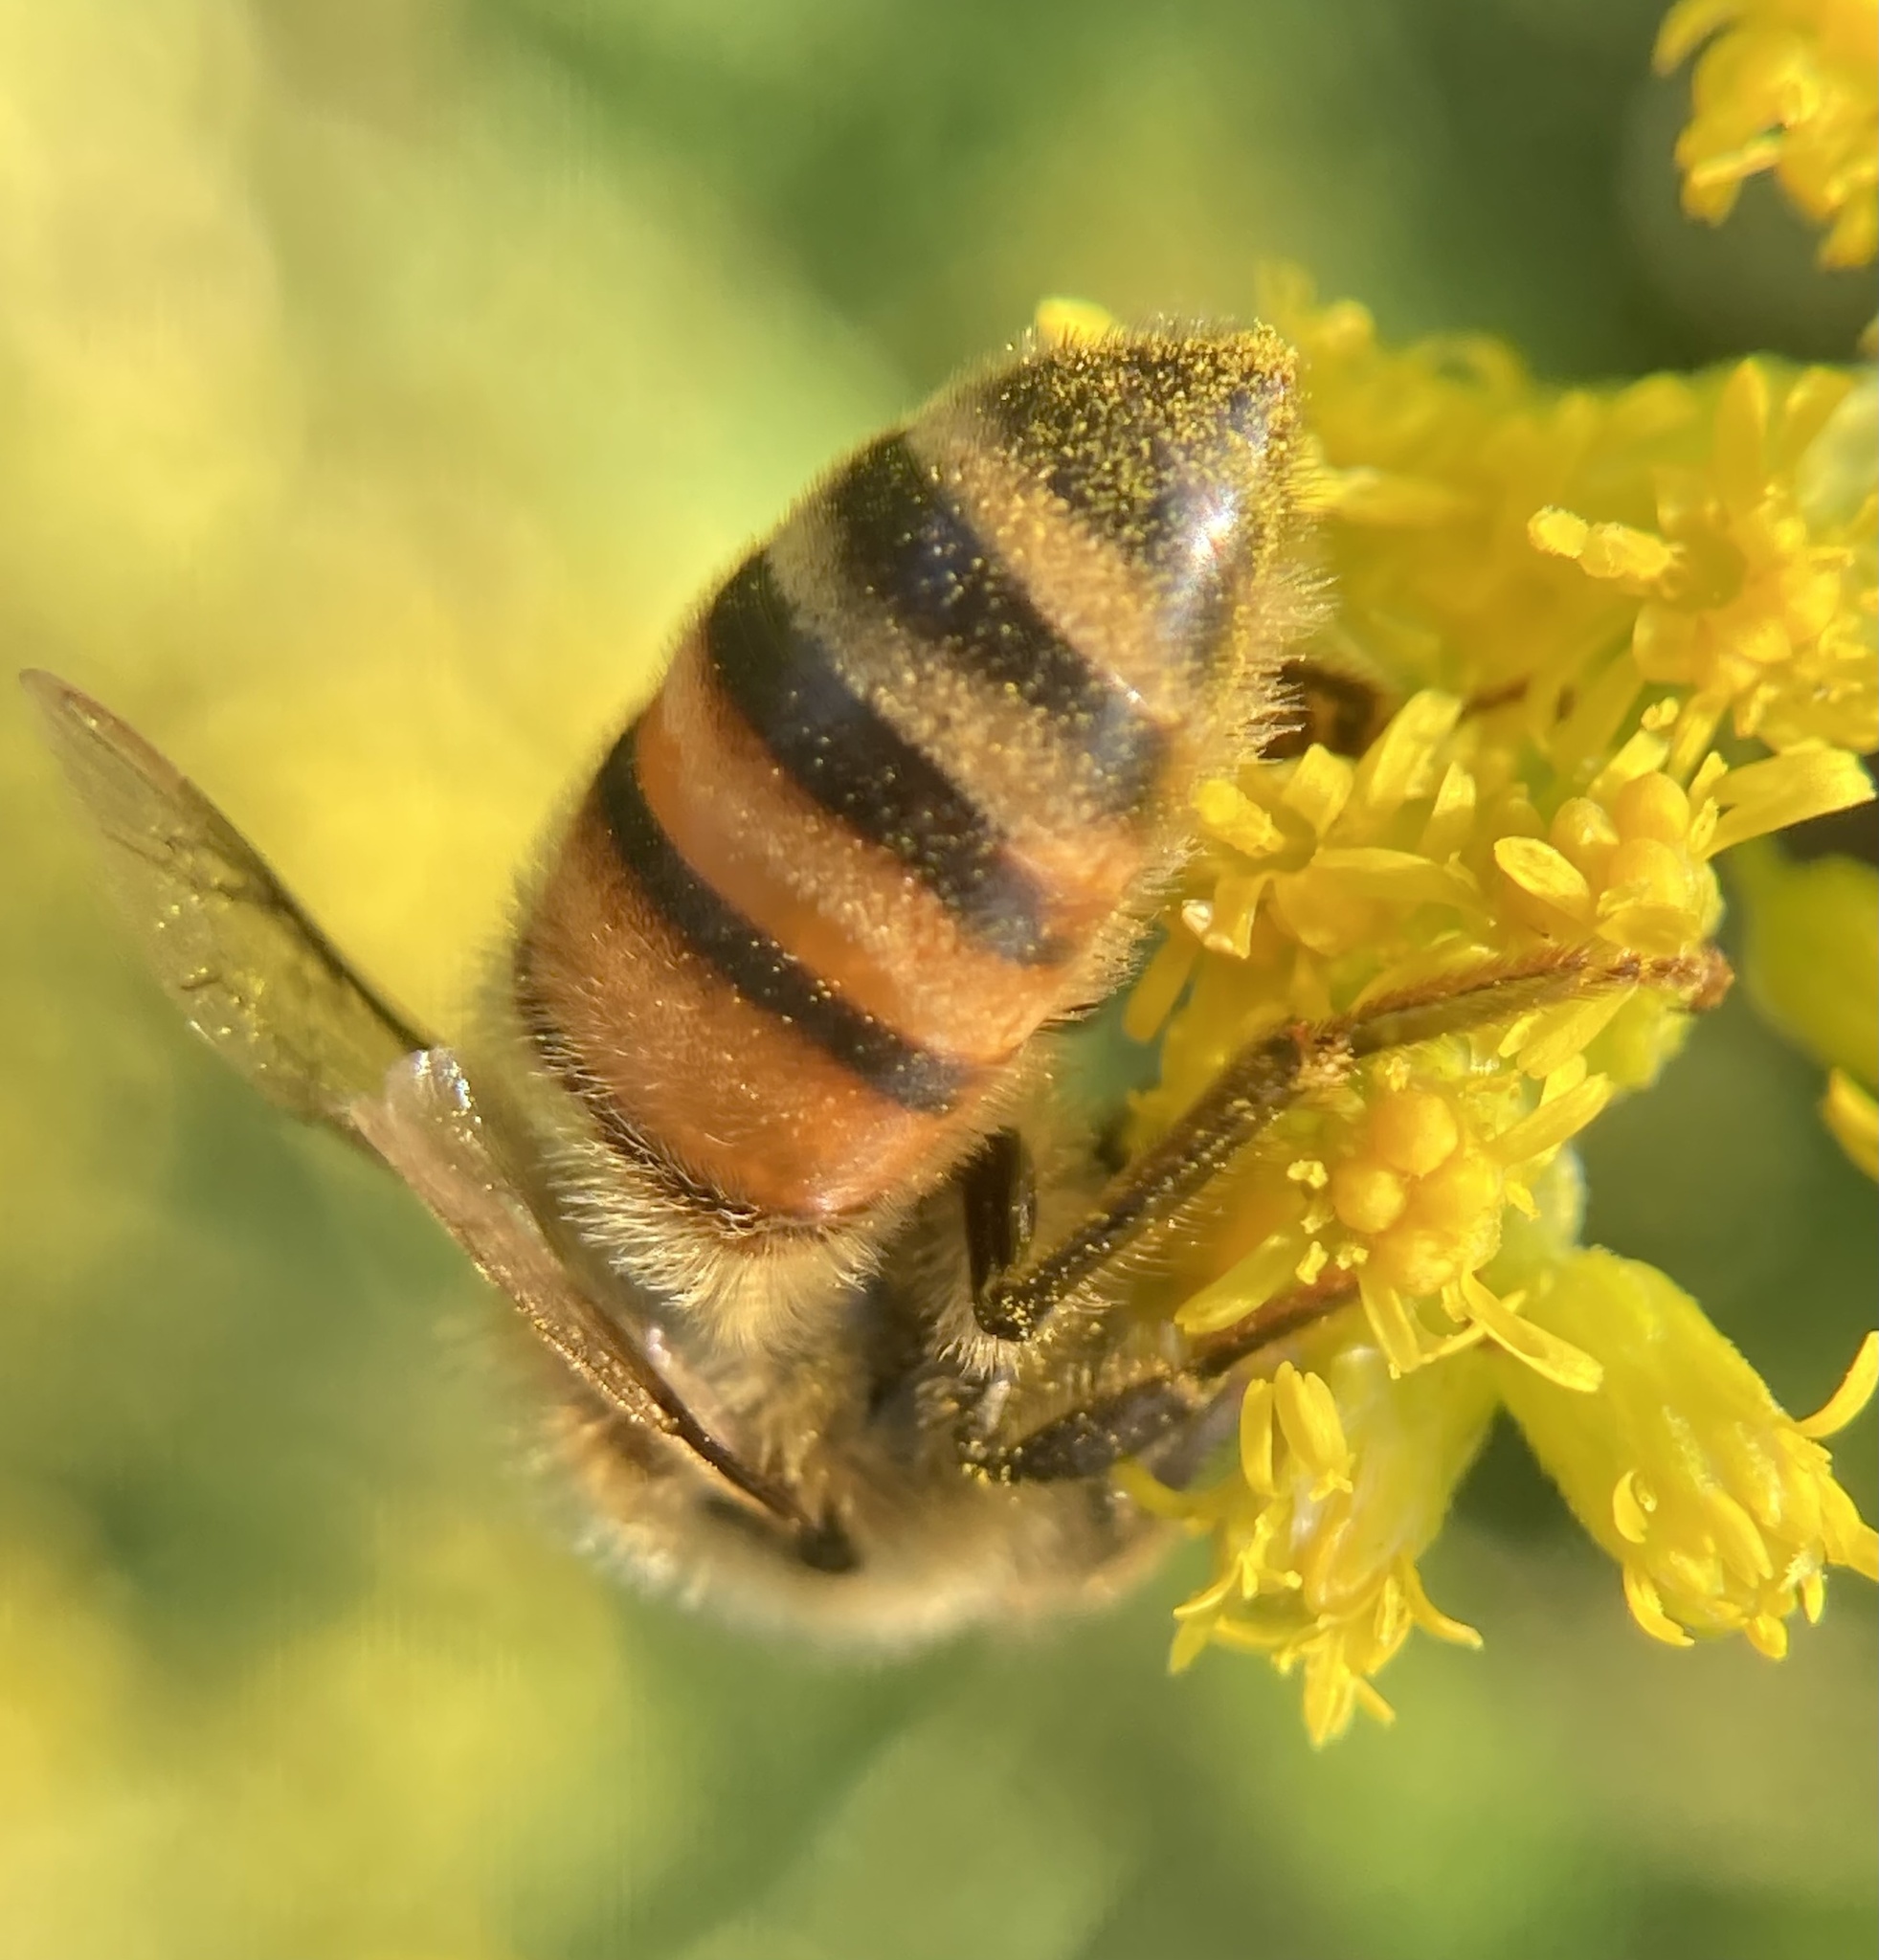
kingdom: Animalia
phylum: Arthropoda
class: Insecta
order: Hymenoptera
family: Apidae
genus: Apis
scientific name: Apis mellifera
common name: Honey bee
